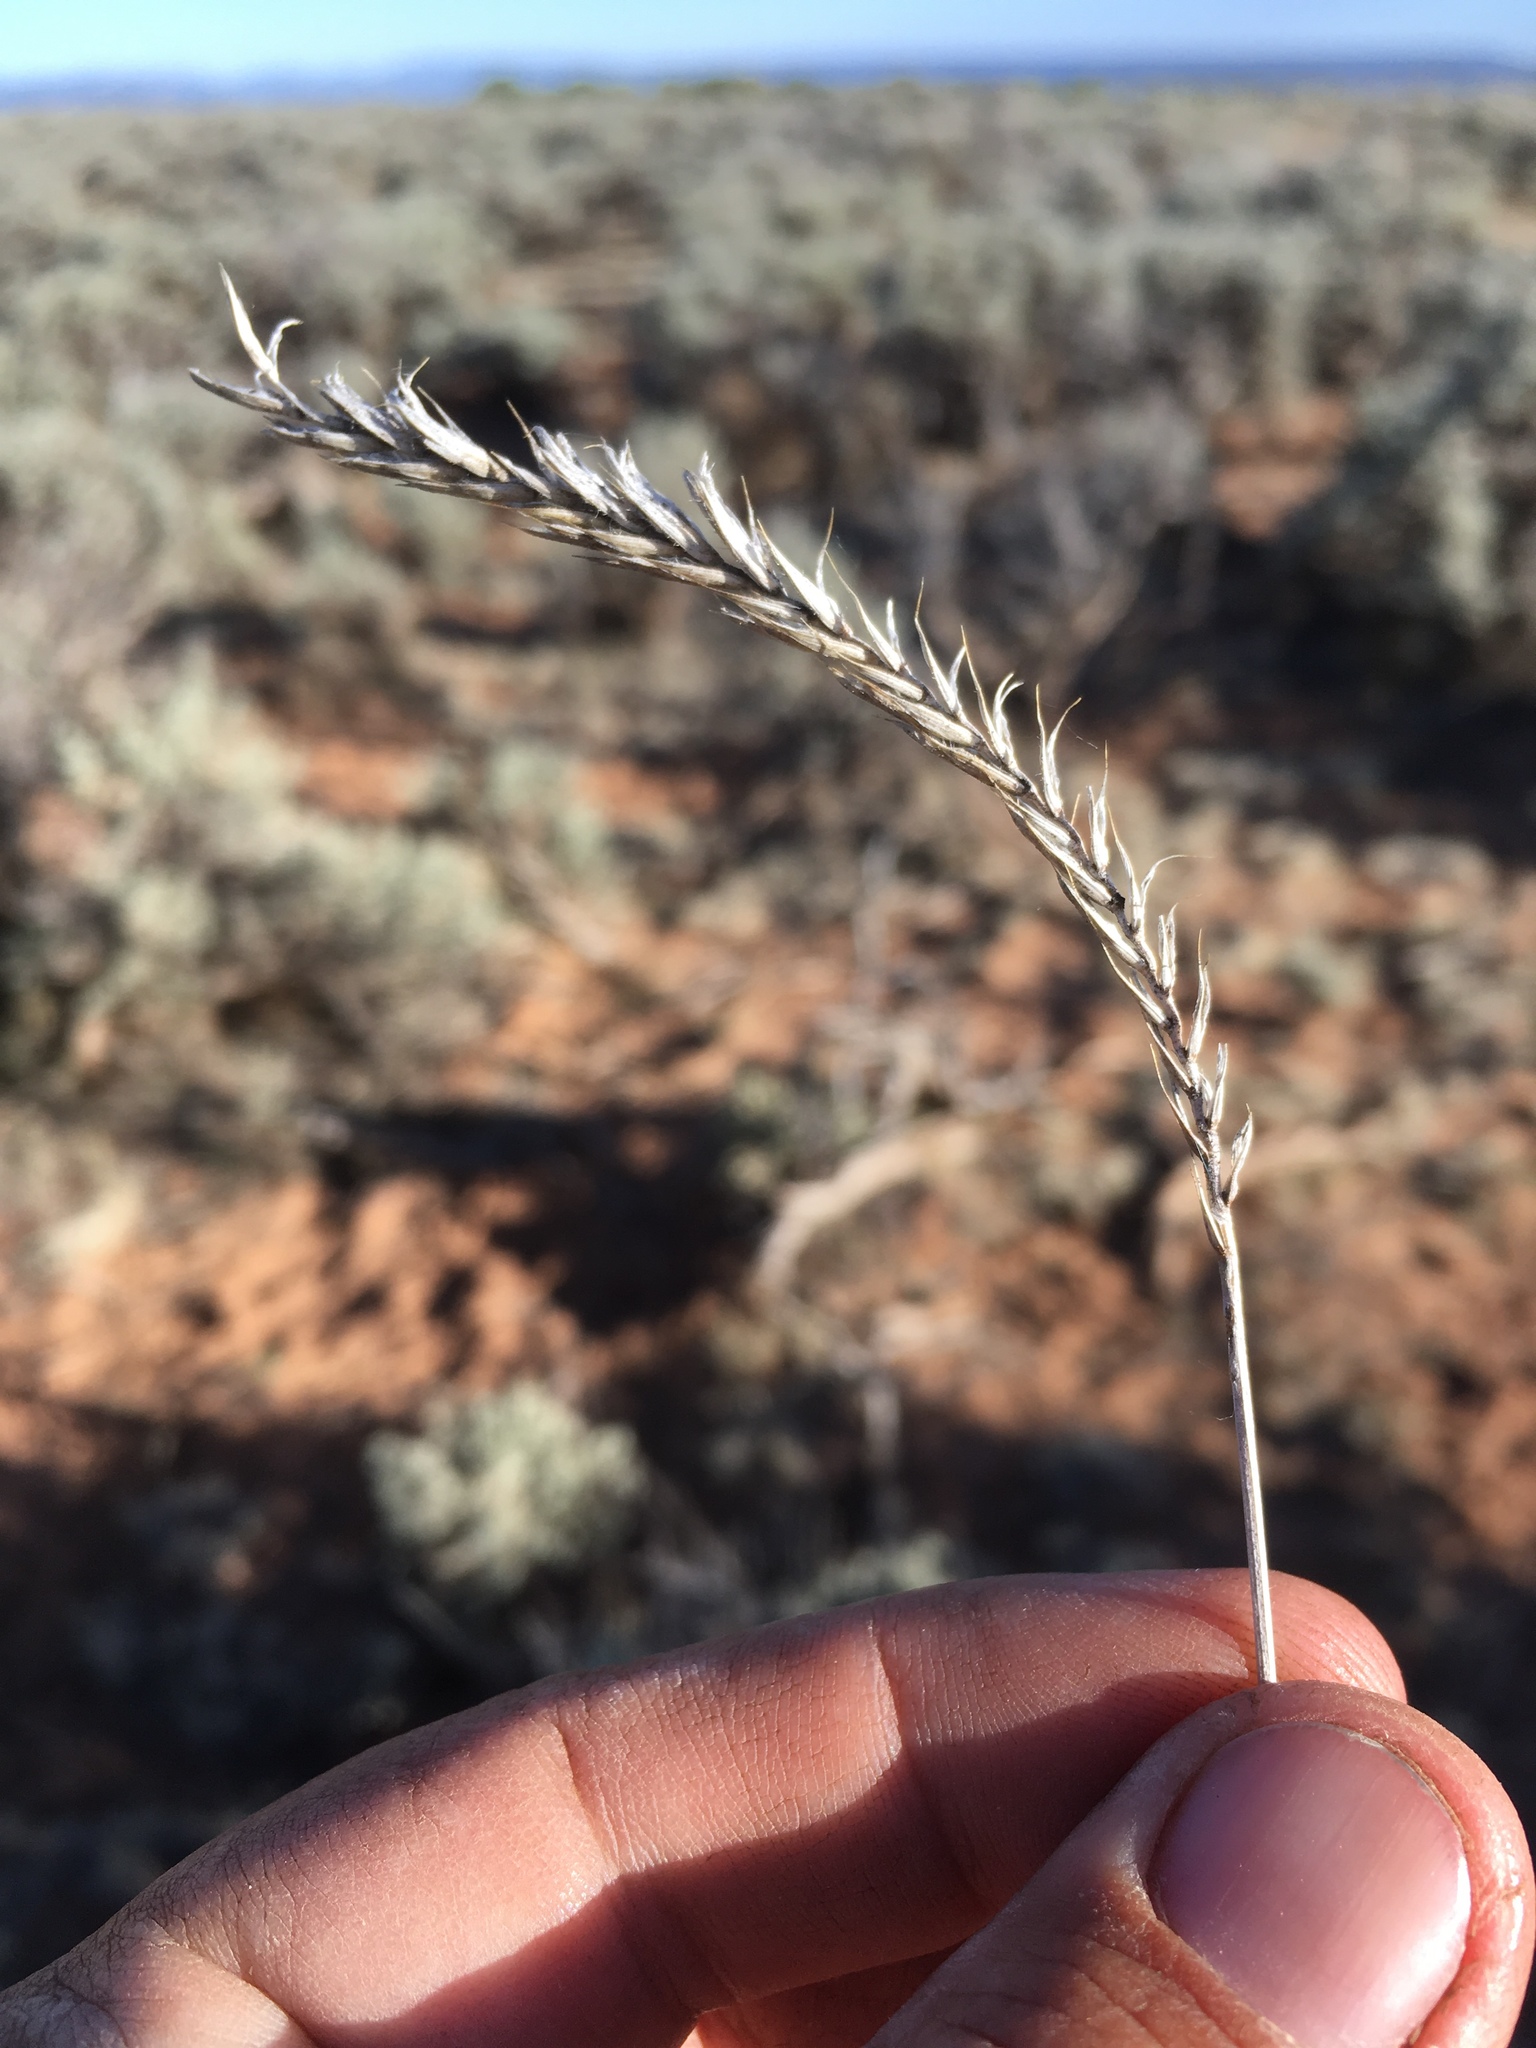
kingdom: Plantae
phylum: Tracheophyta
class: Liliopsida
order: Poales
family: Poaceae
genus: Agropyron
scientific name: Agropyron cristatum
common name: Crested wheatgrass
